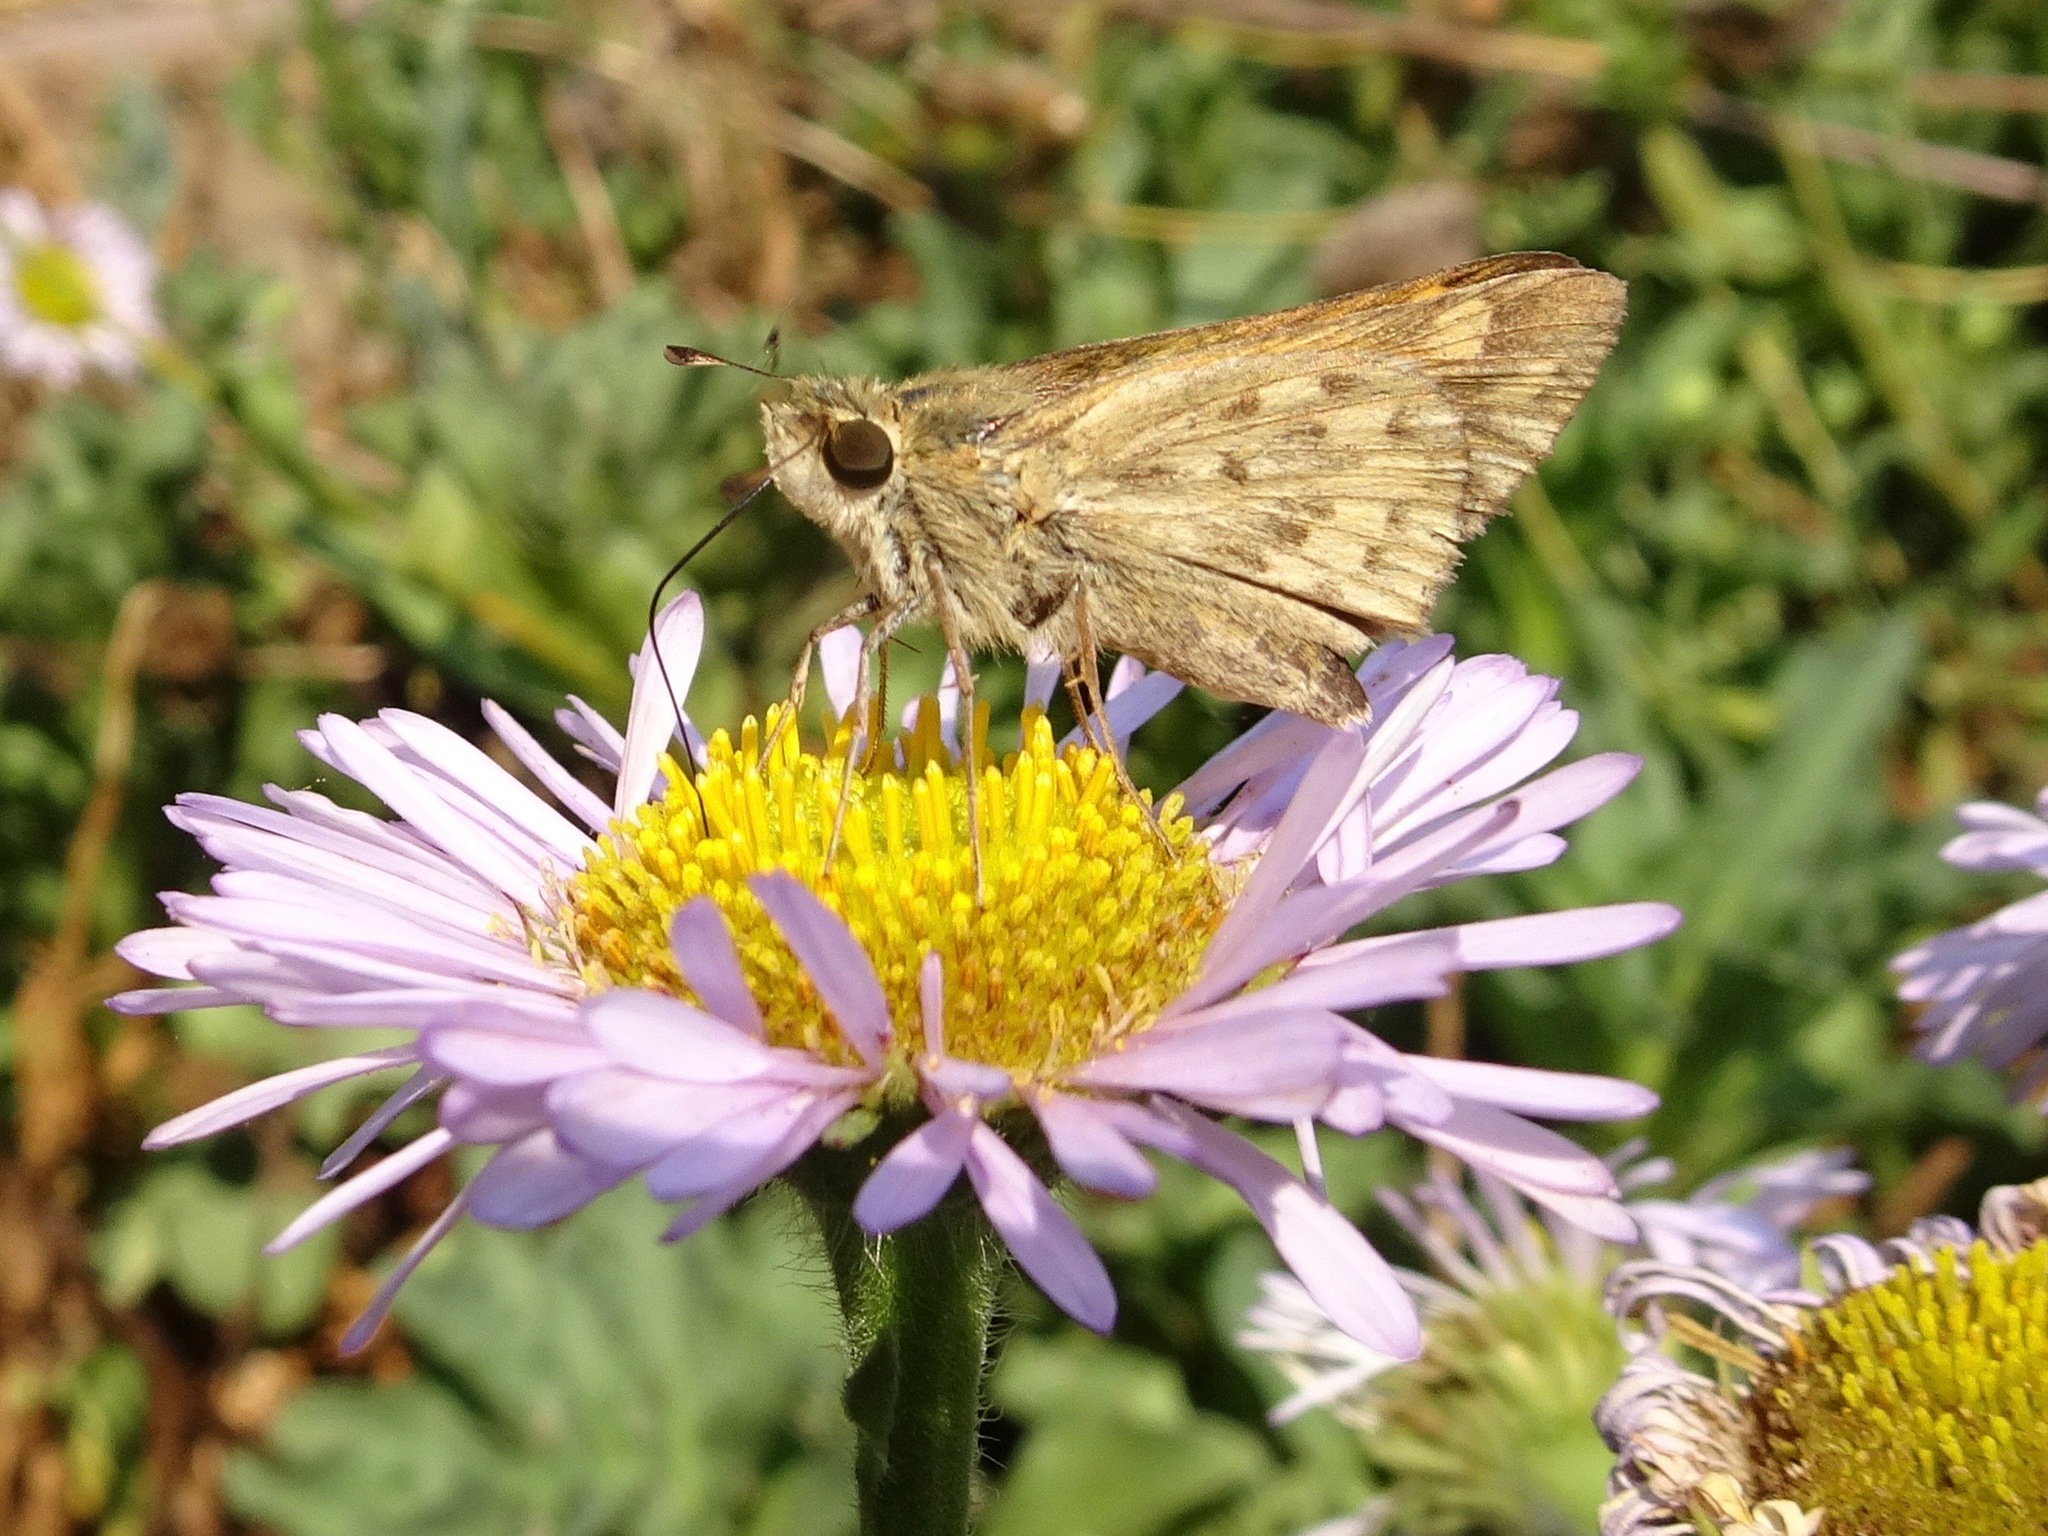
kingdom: Animalia
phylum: Arthropoda
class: Insecta
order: Lepidoptera
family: Hesperiidae
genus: Hylephila
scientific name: Hylephila phyleus
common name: Fiery skipper
